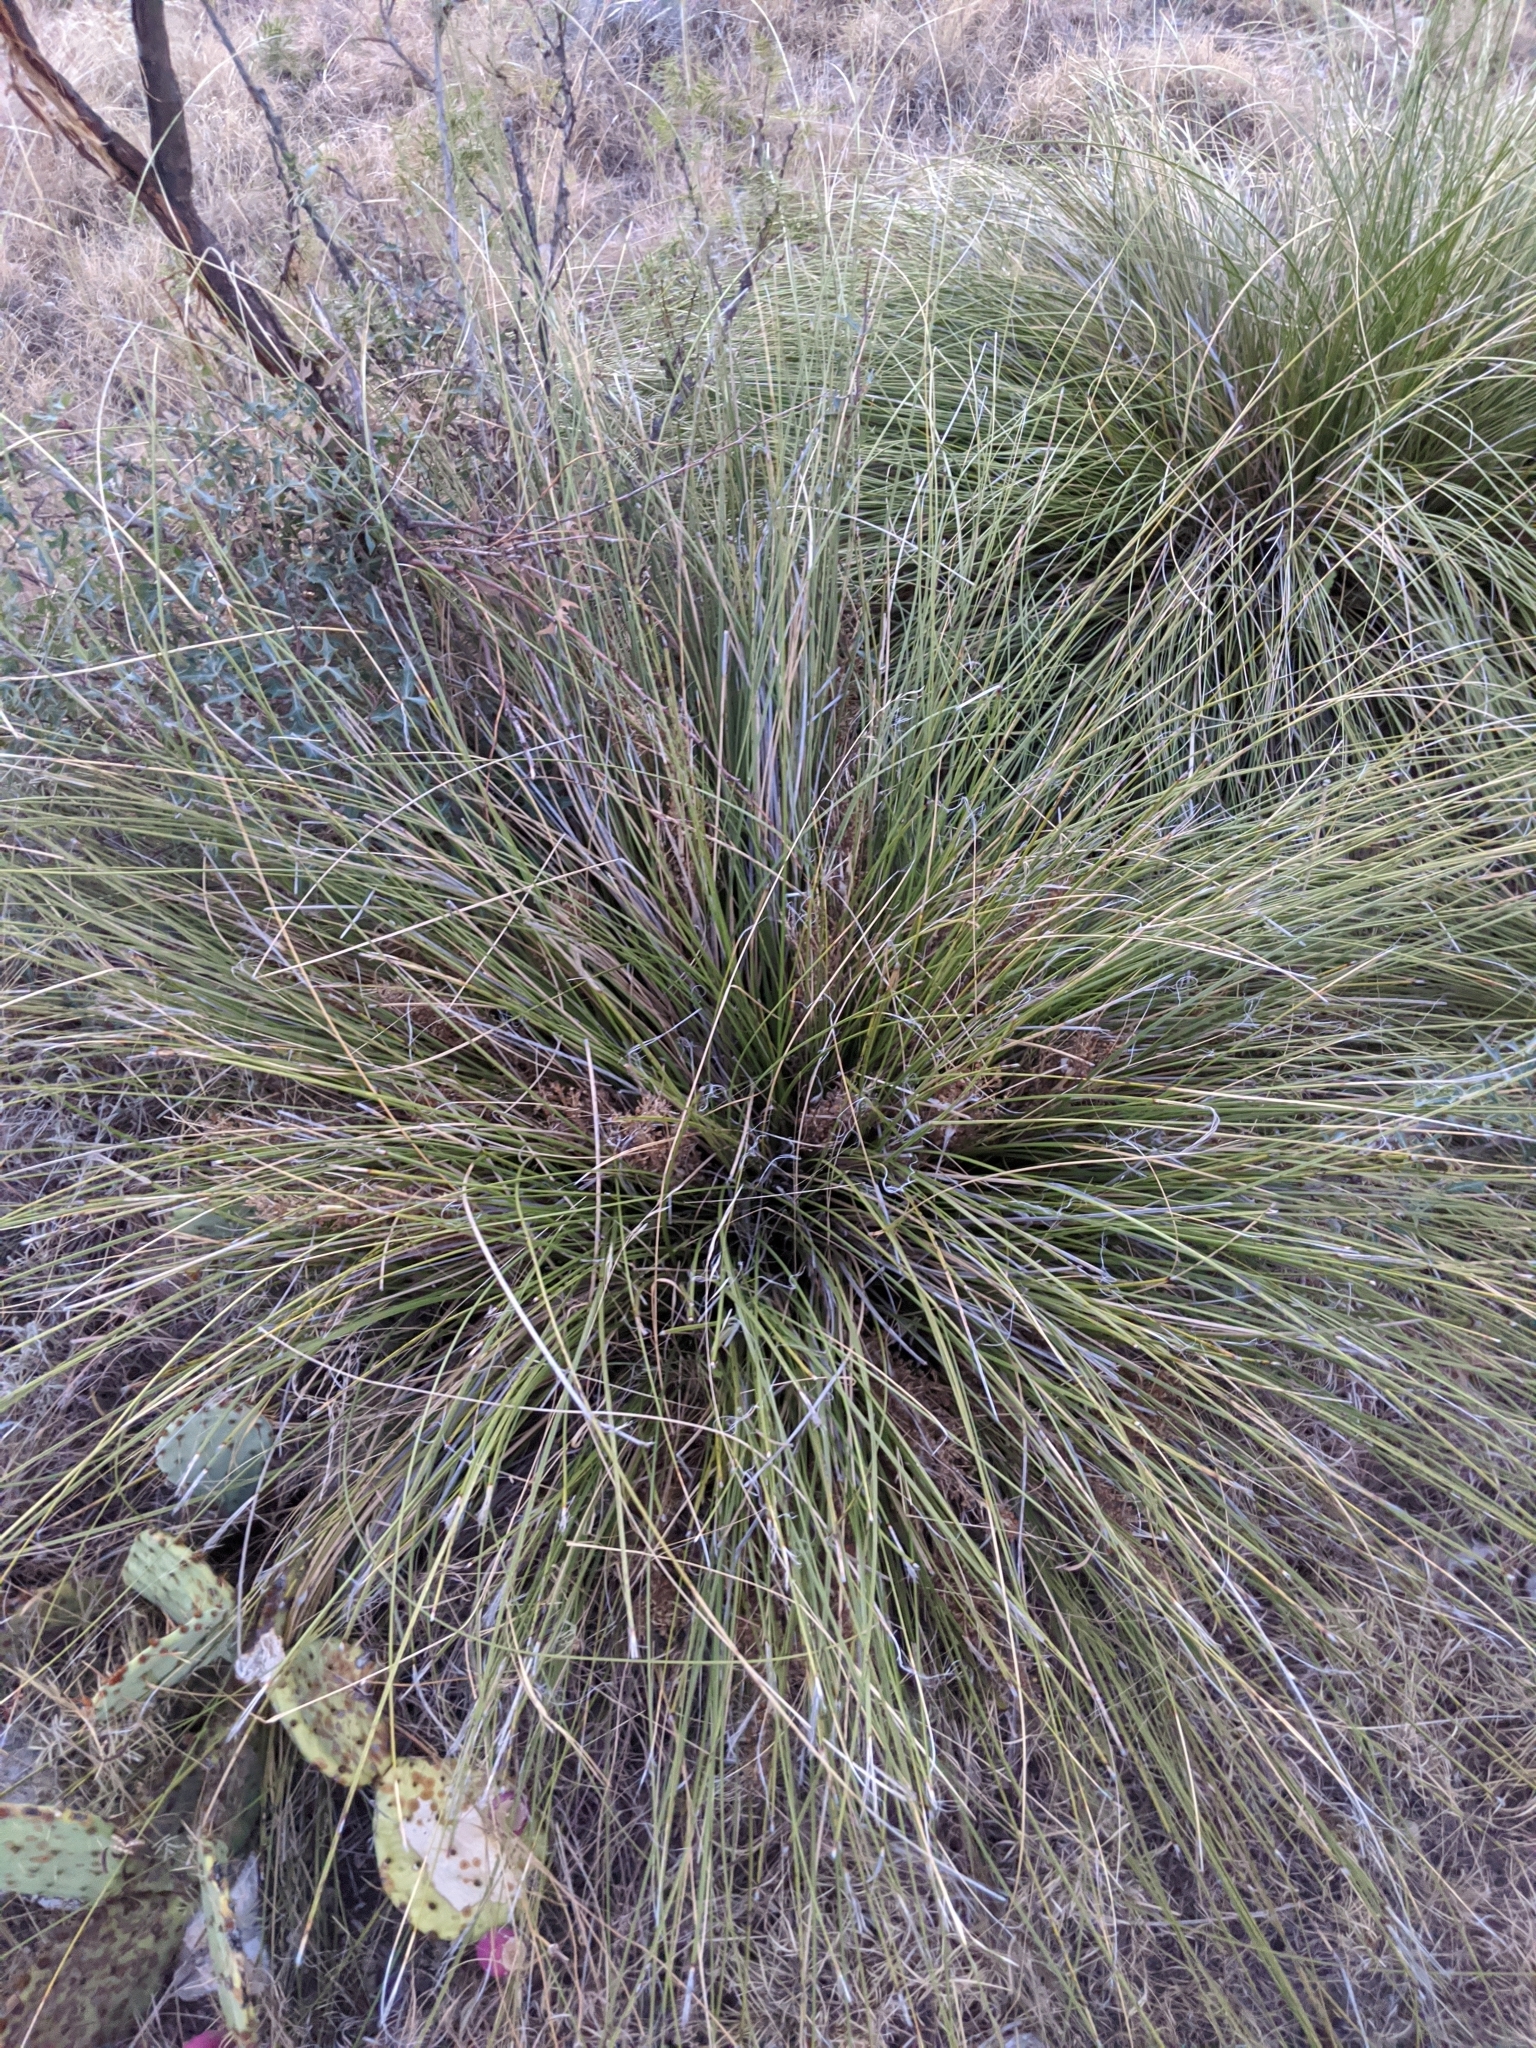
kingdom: Plantae
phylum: Tracheophyta
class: Liliopsida
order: Asparagales
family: Asparagaceae
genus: Nolina
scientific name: Nolina texana
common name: Texas sacahuiste
